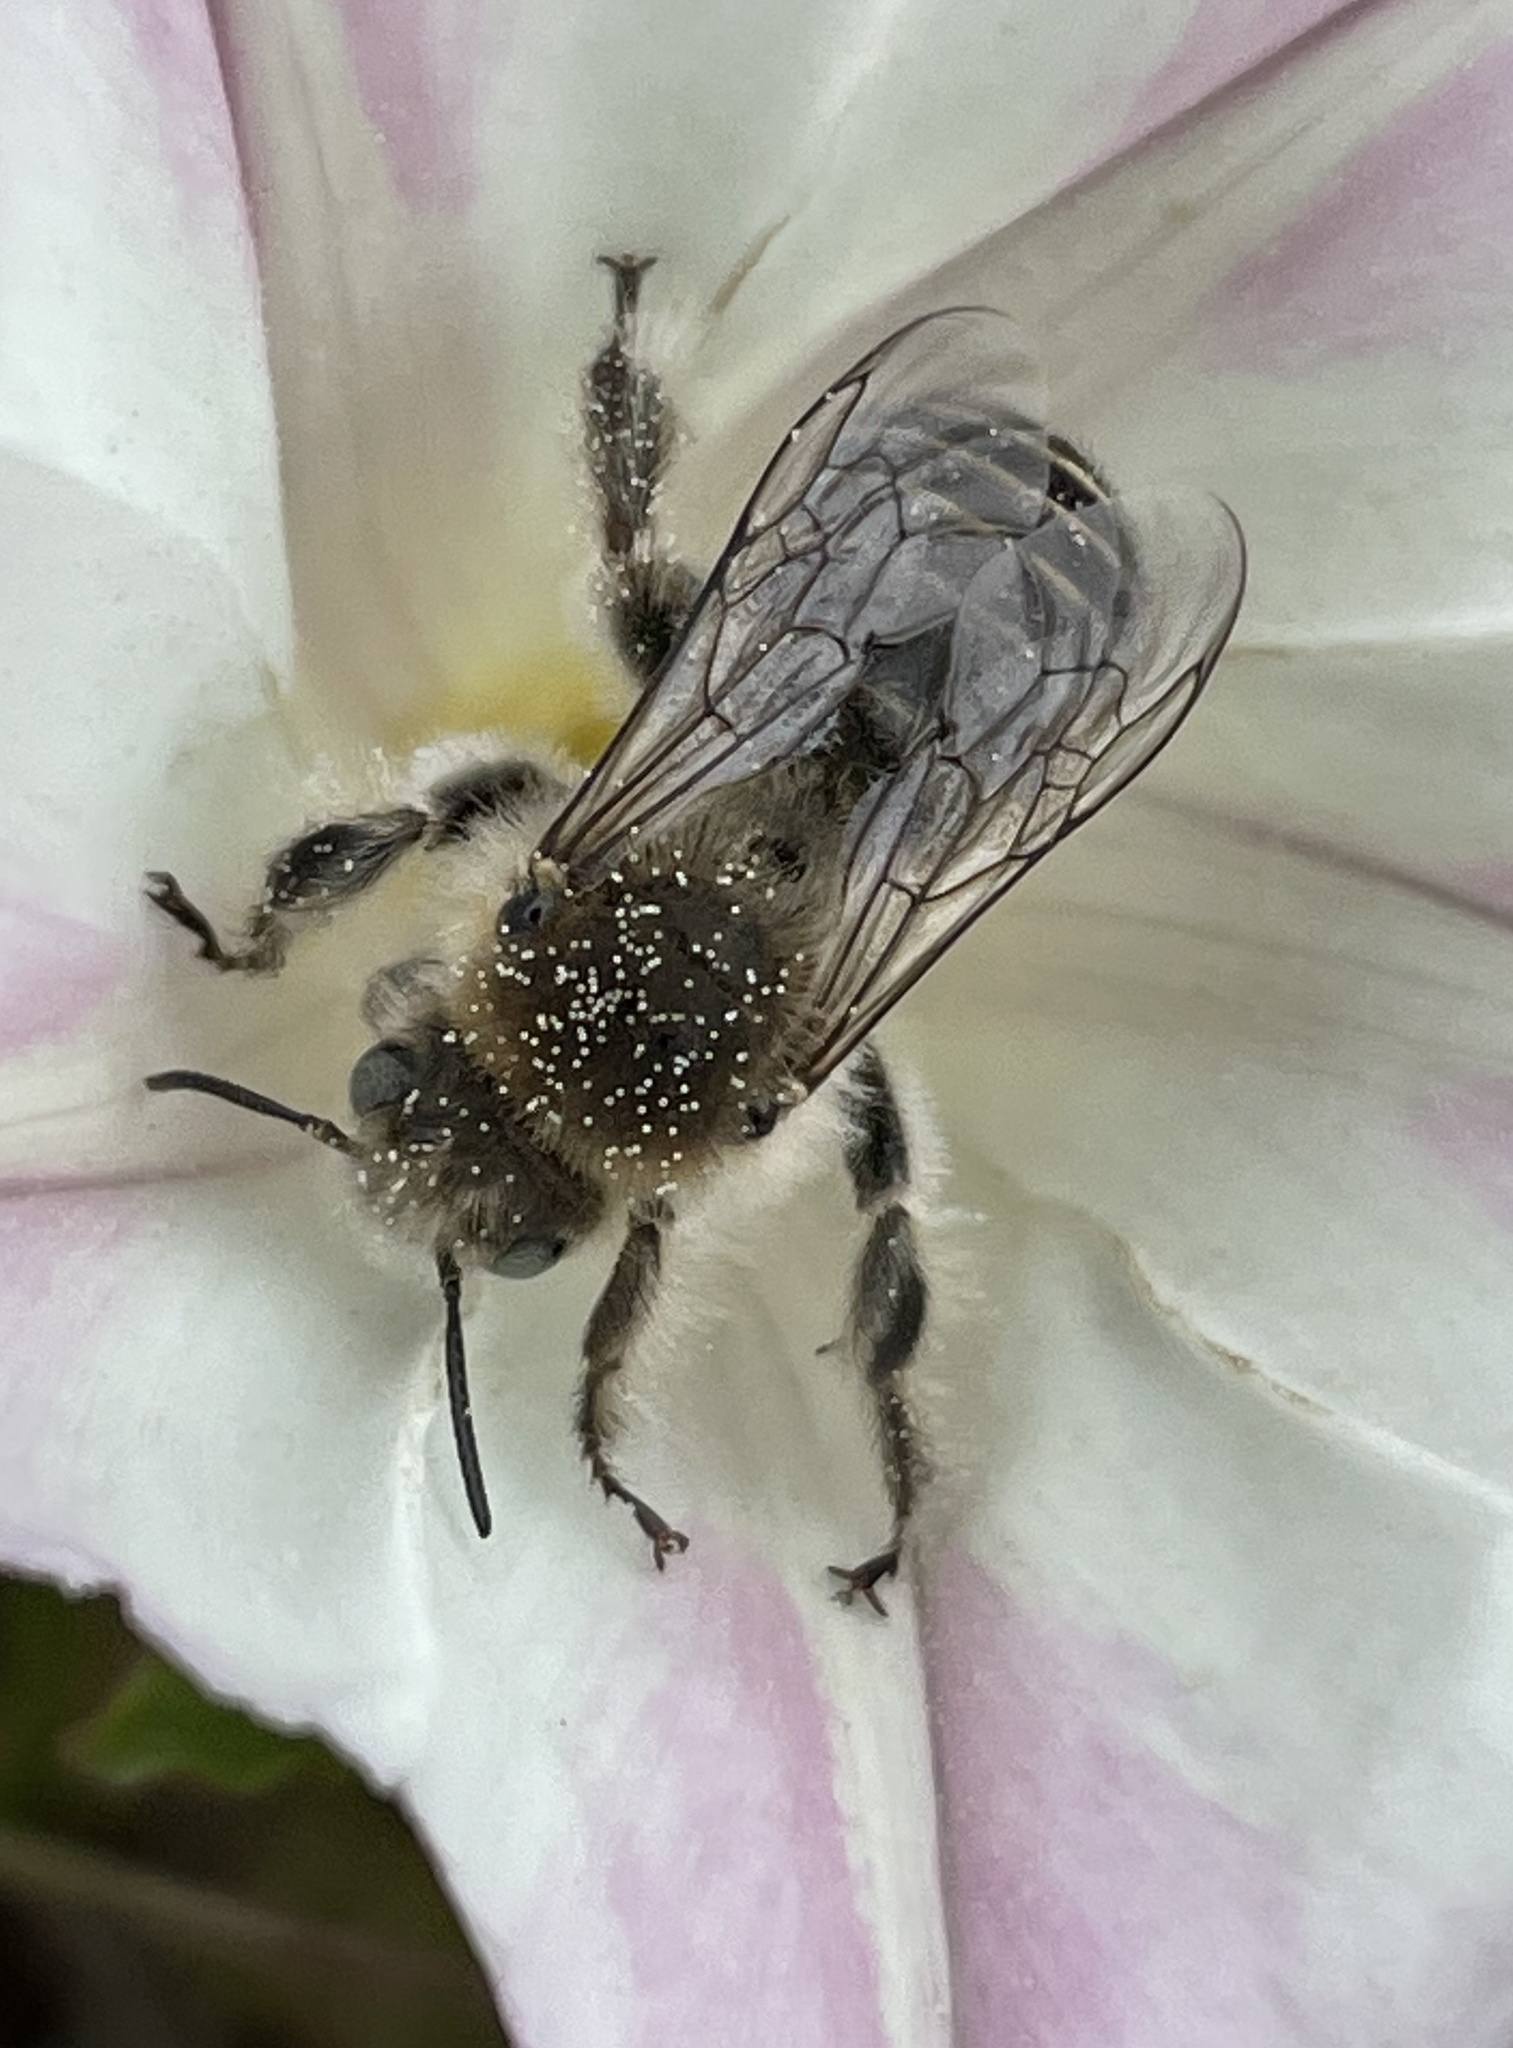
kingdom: Animalia
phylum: Arthropoda
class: Insecta
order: Hymenoptera
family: Apidae
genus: Diadasia
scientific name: Diadasia bituberculata
